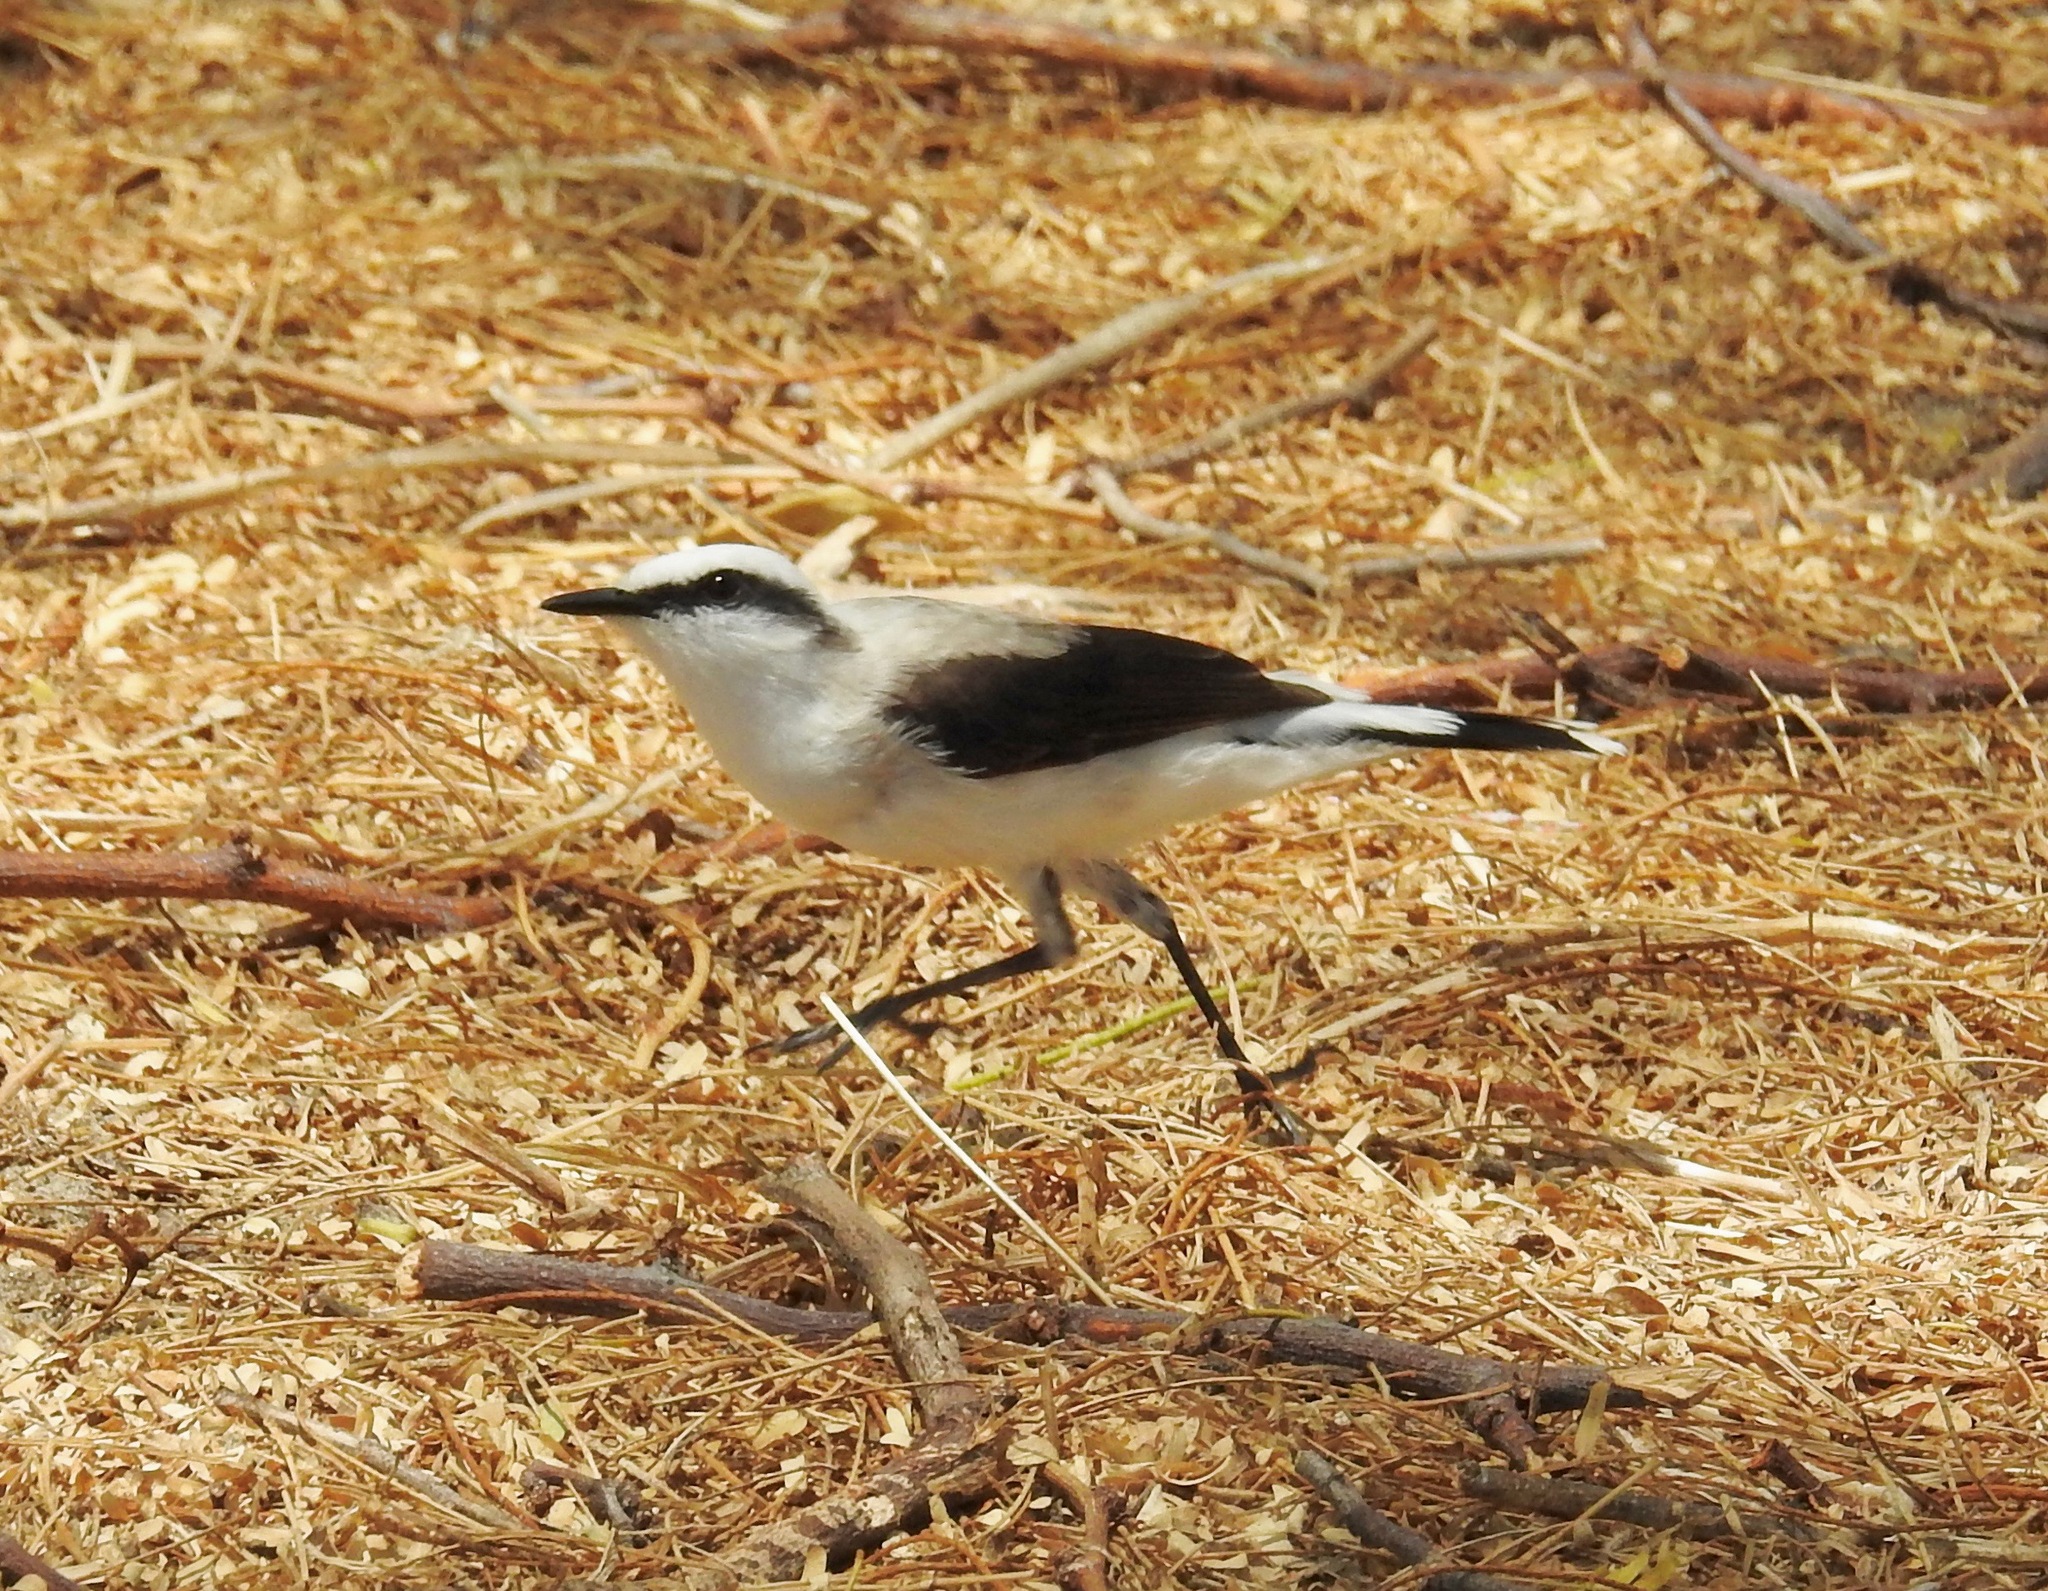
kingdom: Animalia
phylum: Chordata
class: Aves
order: Passeriformes
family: Tyrannidae
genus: Fluvicola
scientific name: Fluvicola nengeta
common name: Masked water tyrant
